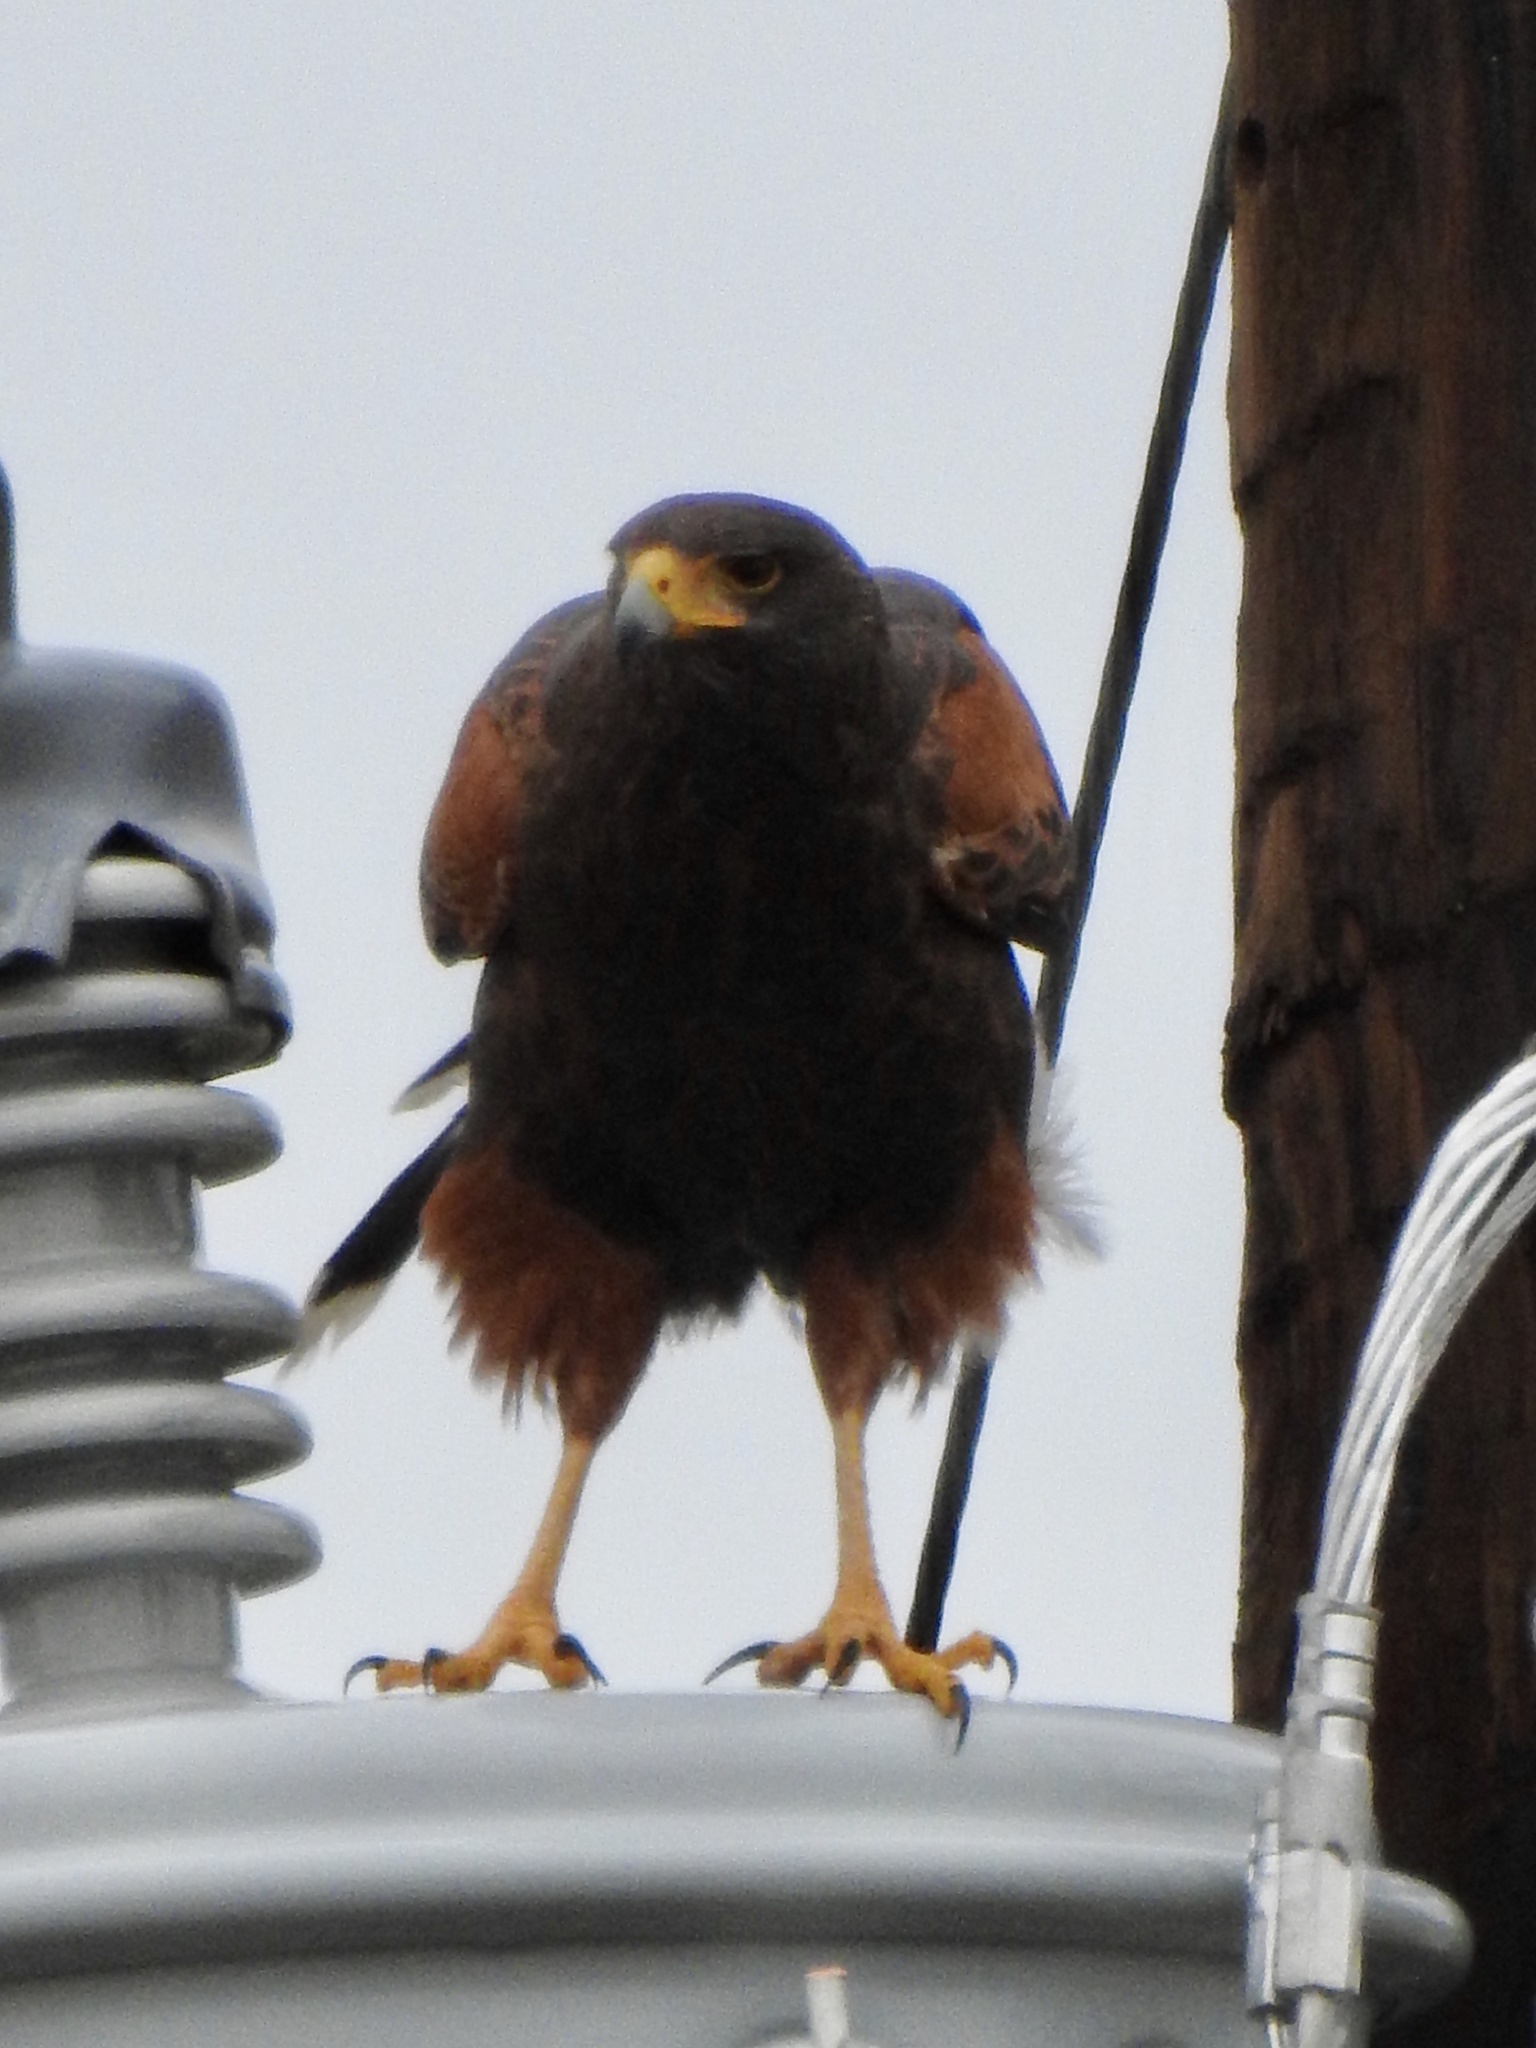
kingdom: Animalia
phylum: Chordata
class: Aves
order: Accipitriformes
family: Accipitridae
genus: Parabuteo
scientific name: Parabuteo unicinctus
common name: Harris's hawk
